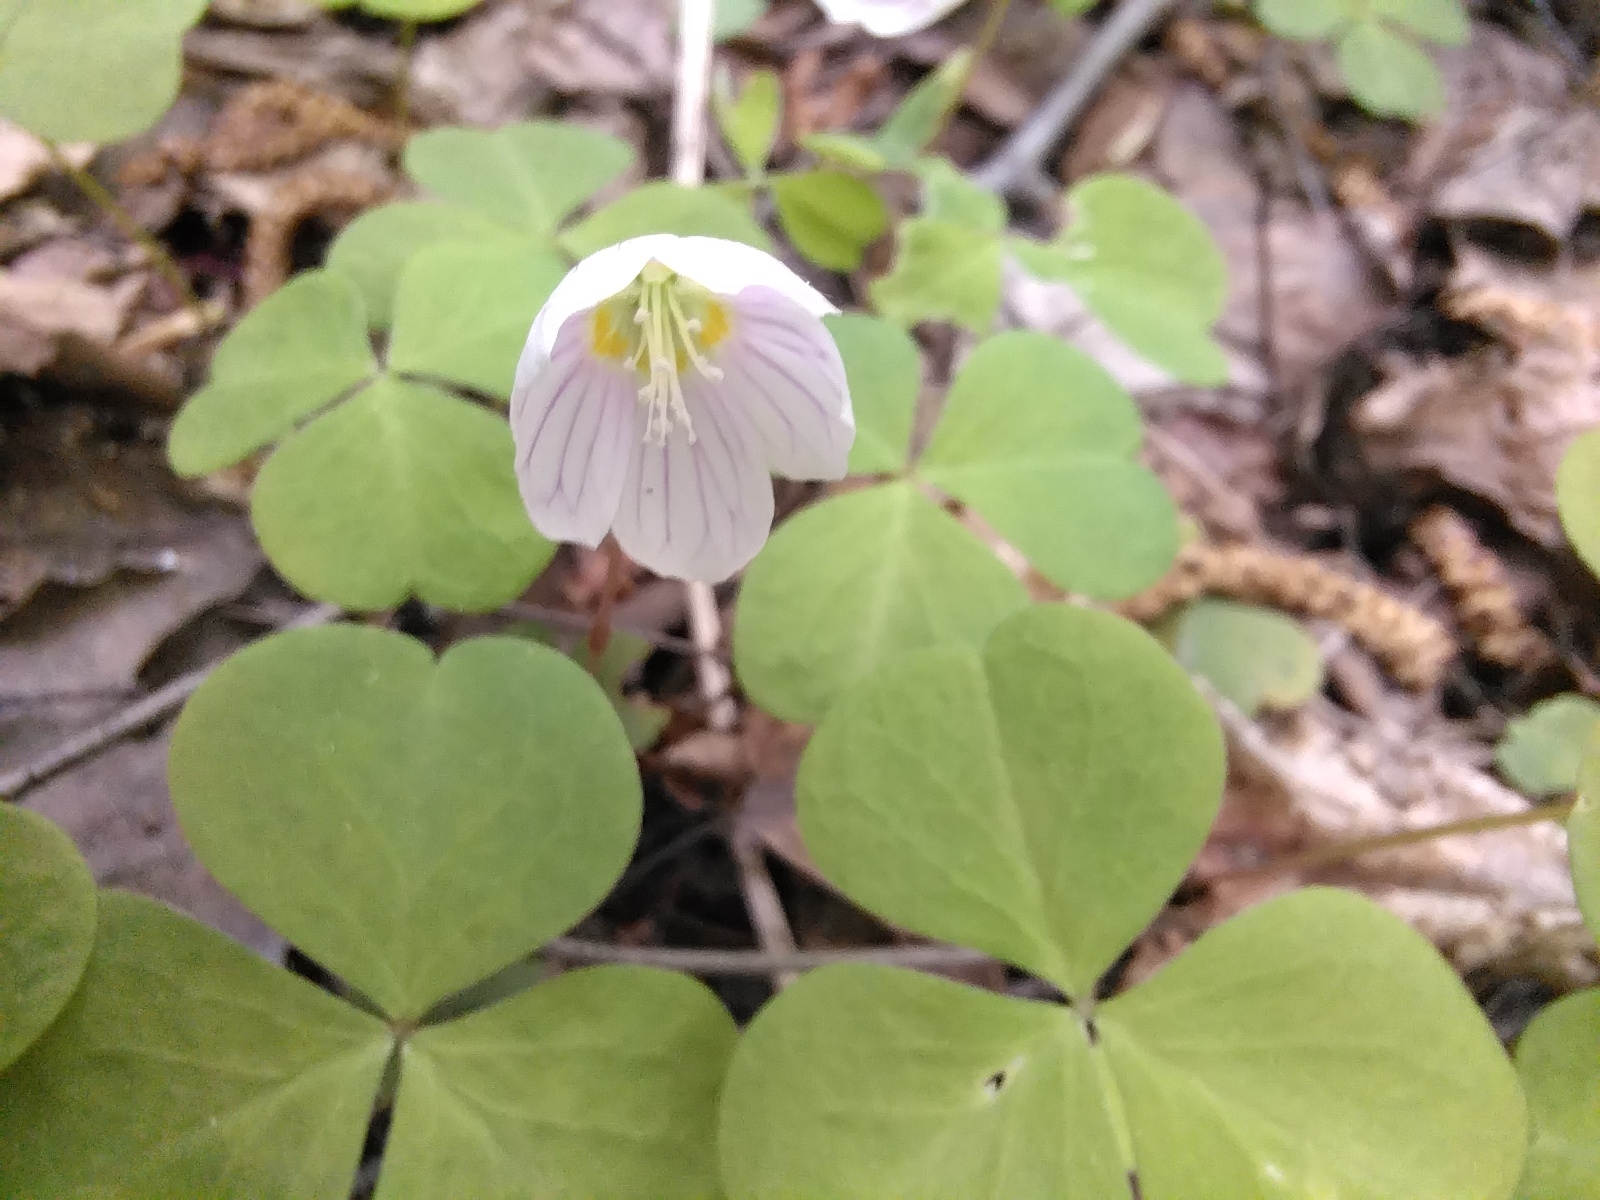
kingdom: Plantae
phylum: Tracheophyta
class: Magnoliopsida
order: Oxalidales
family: Oxalidaceae
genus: Oxalis
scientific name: Oxalis acetosella
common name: Wood-sorrel
